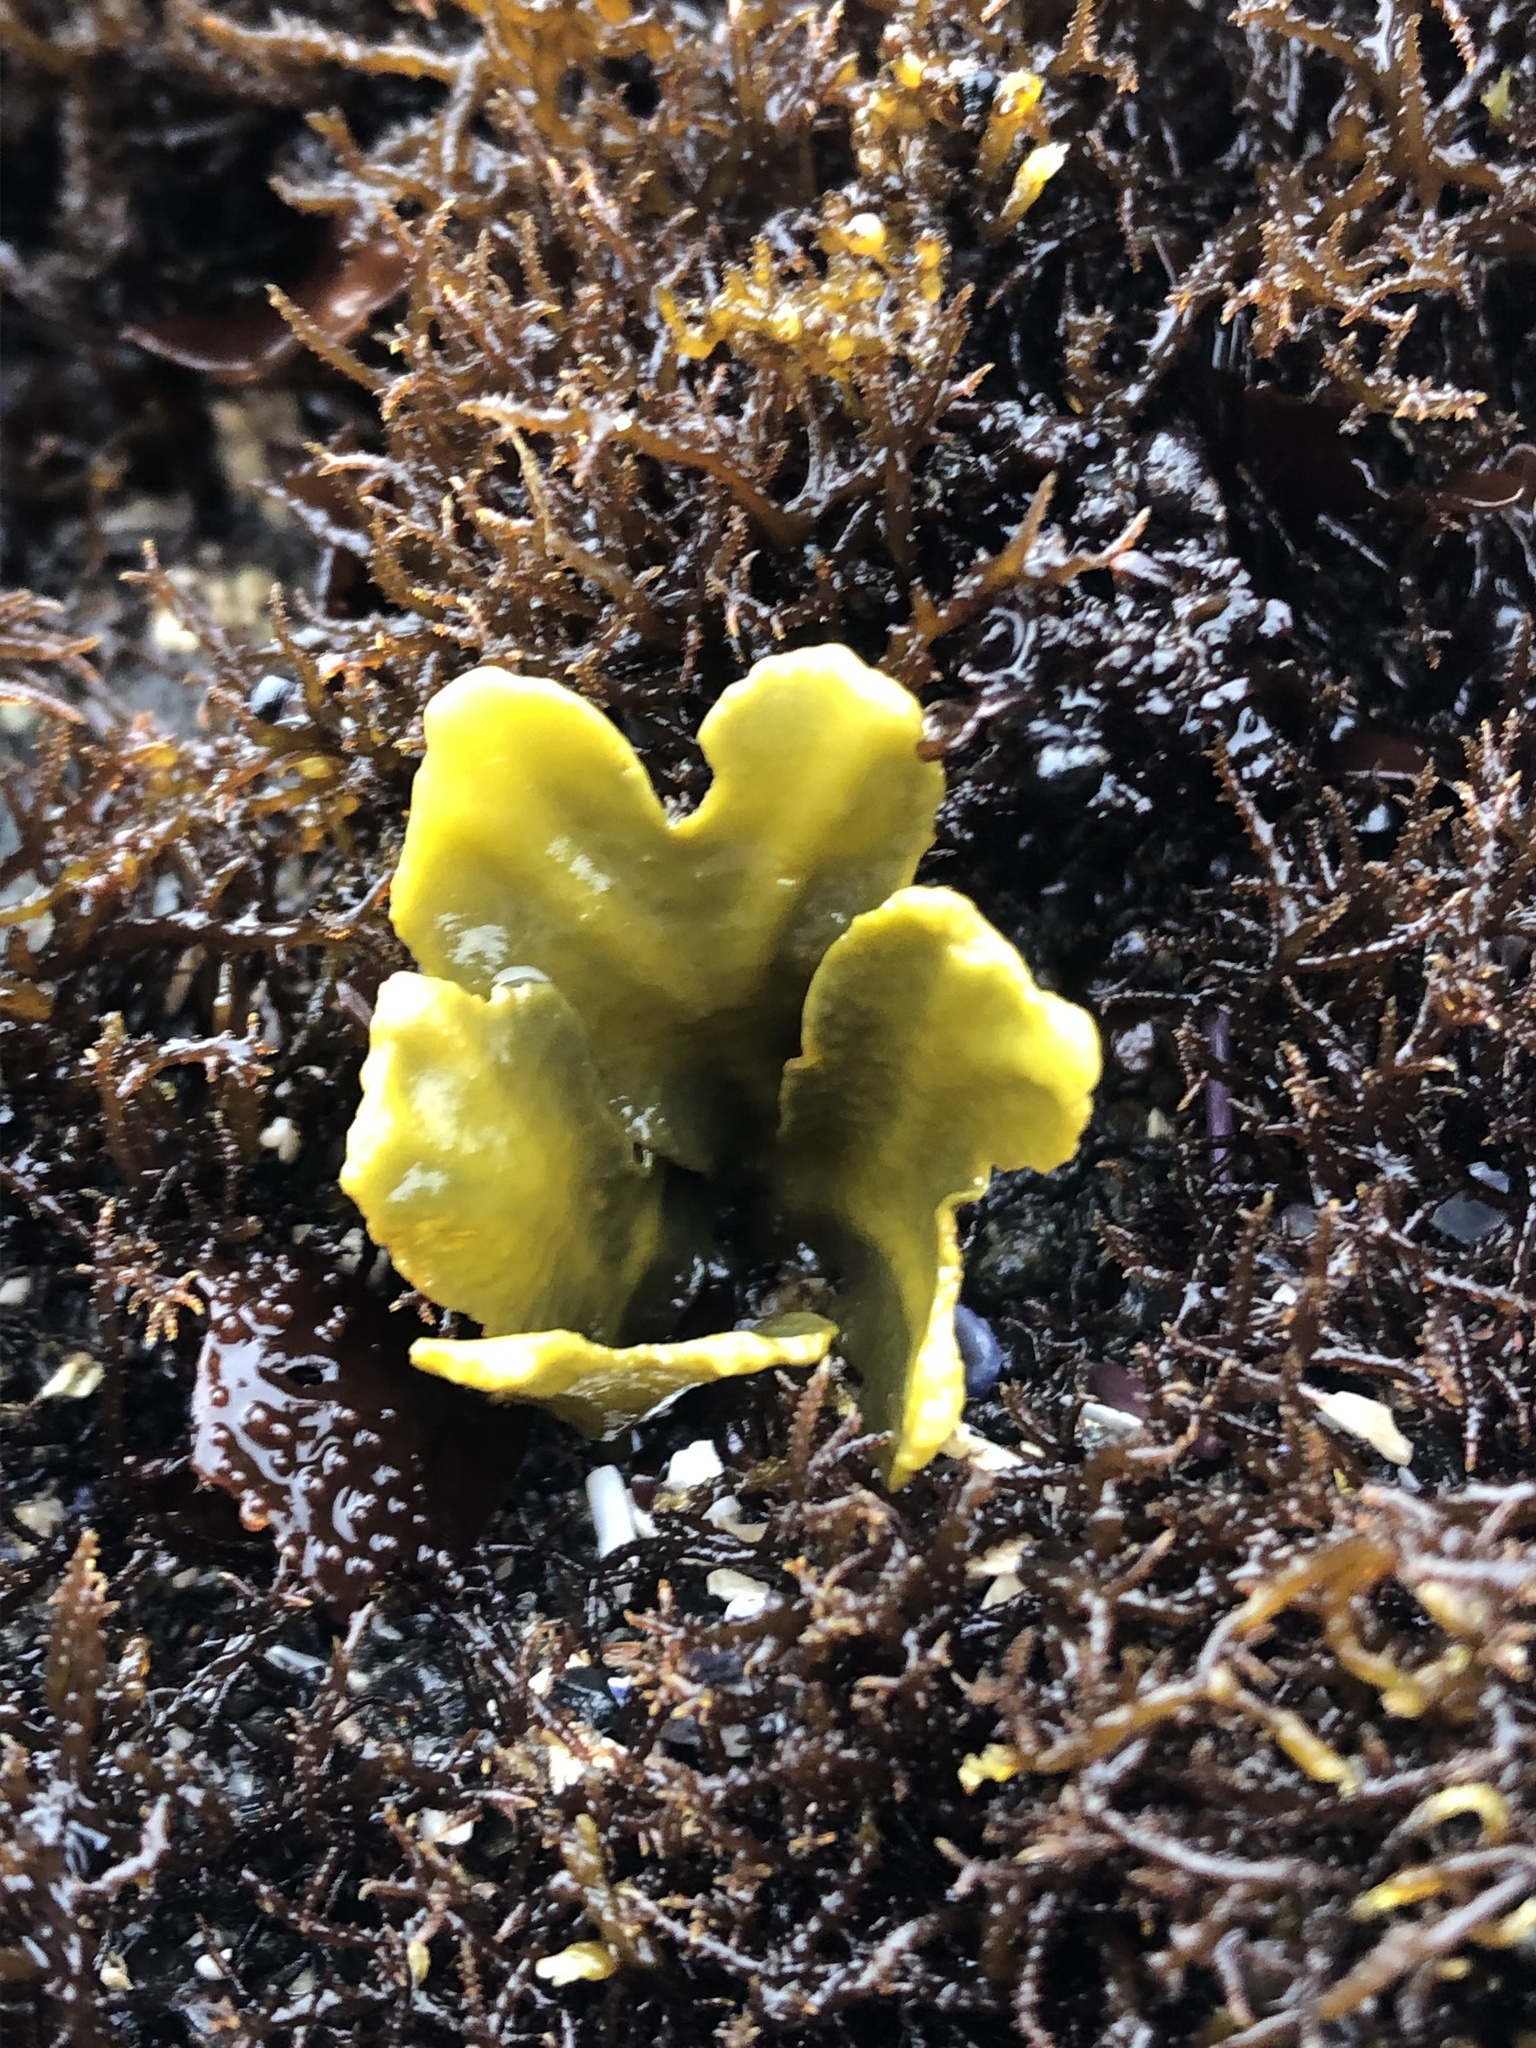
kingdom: Chromista
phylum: Ochrophyta
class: Phaeophyceae
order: Fucales
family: Fucaceae
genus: Fucus
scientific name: Fucus distichus
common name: Rockweed
